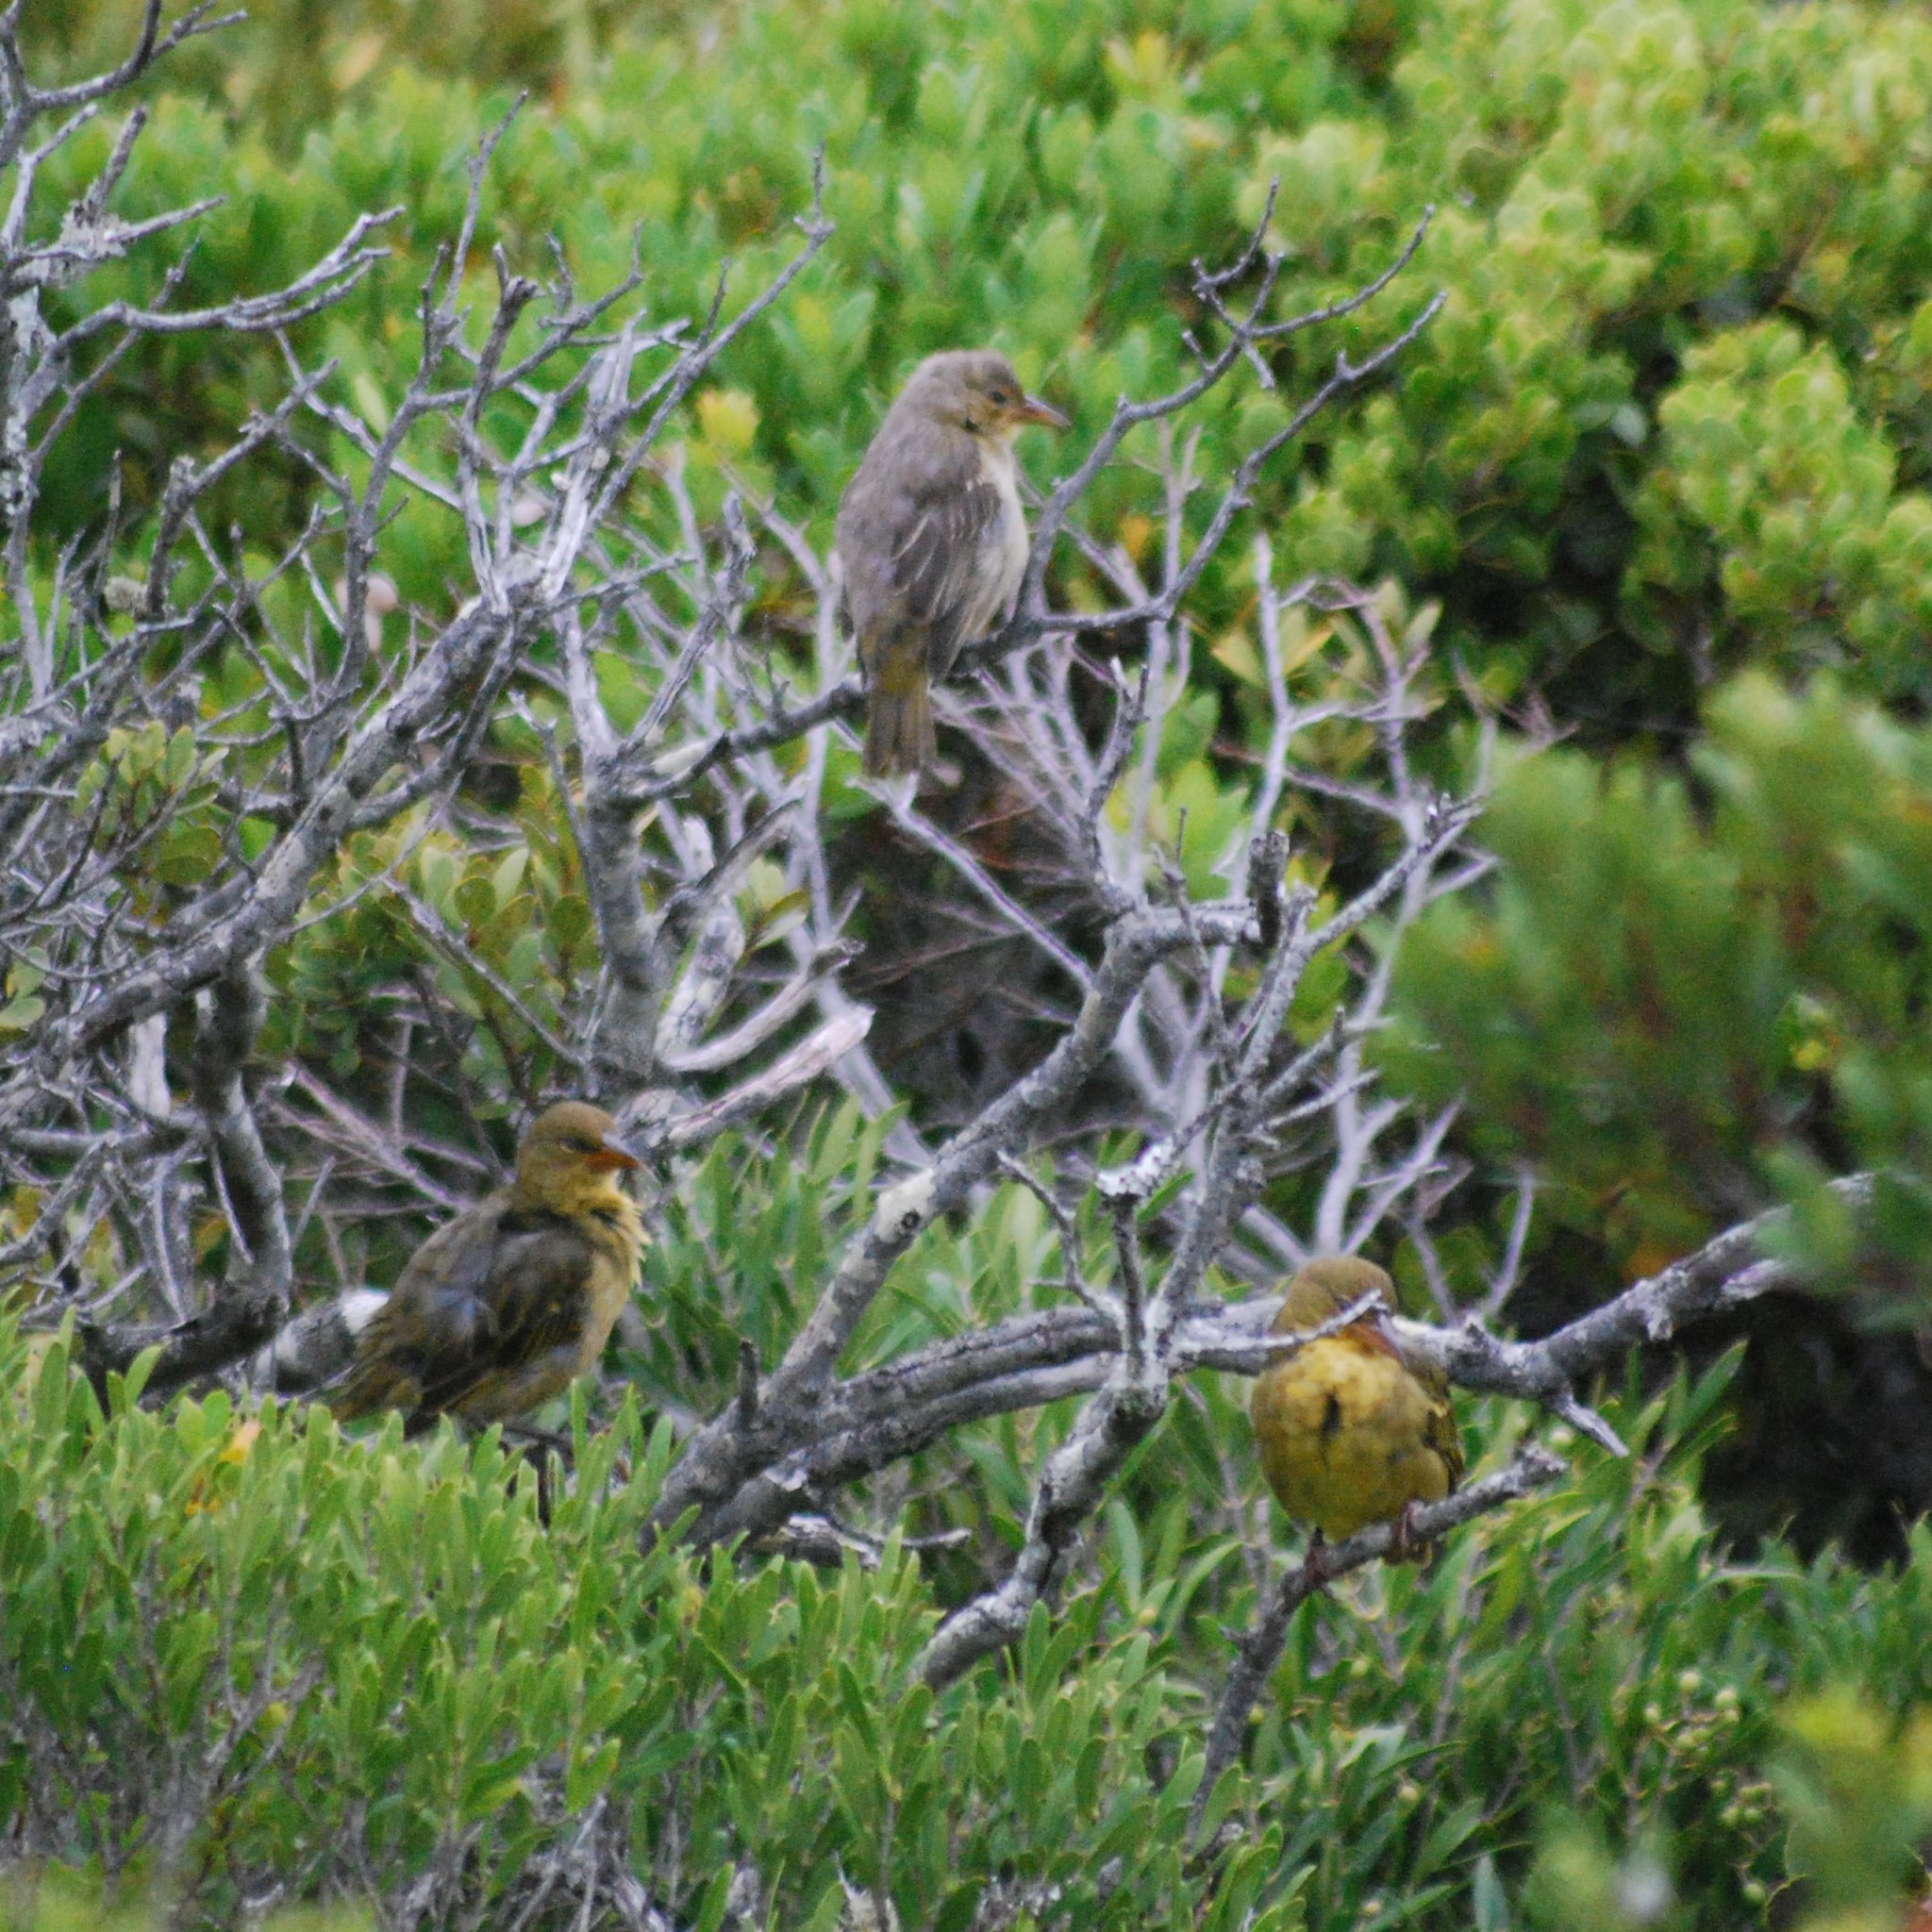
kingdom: Animalia
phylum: Chordata
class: Aves
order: Passeriformes
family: Ploceidae
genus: Ploceus
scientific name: Ploceus capensis
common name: Cape weaver
